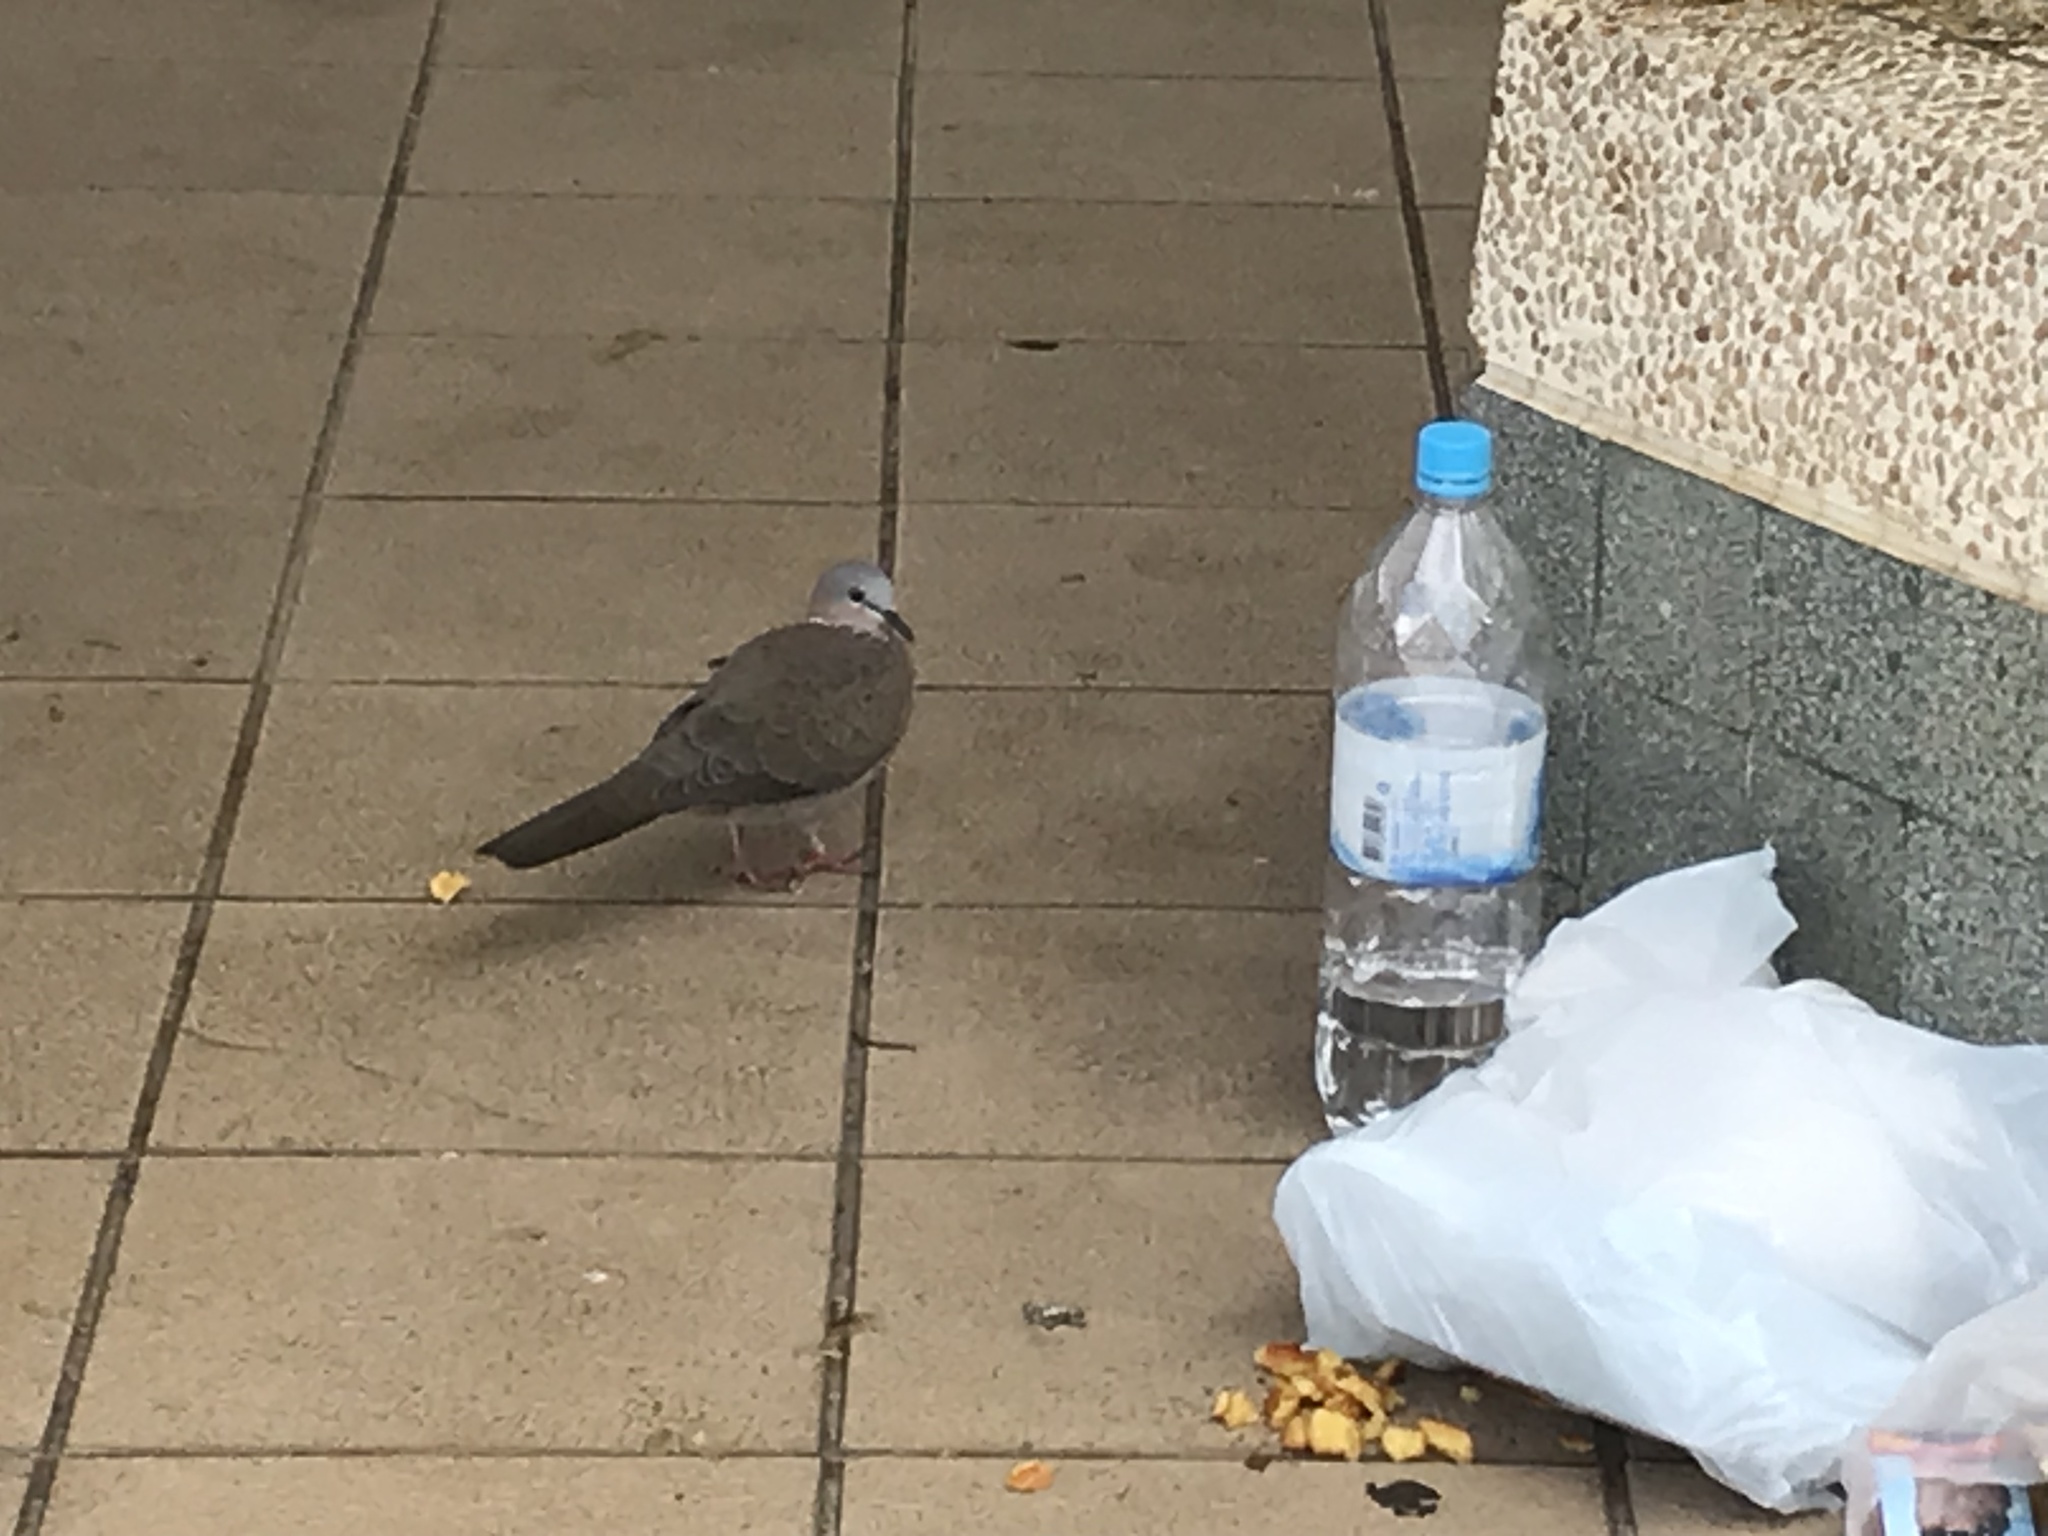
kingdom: Animalia
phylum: Chordata
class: Aves
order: Columbiformes
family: Columbidae
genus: Spilopelia
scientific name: Spilopelia chinensis
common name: Spotted dove
